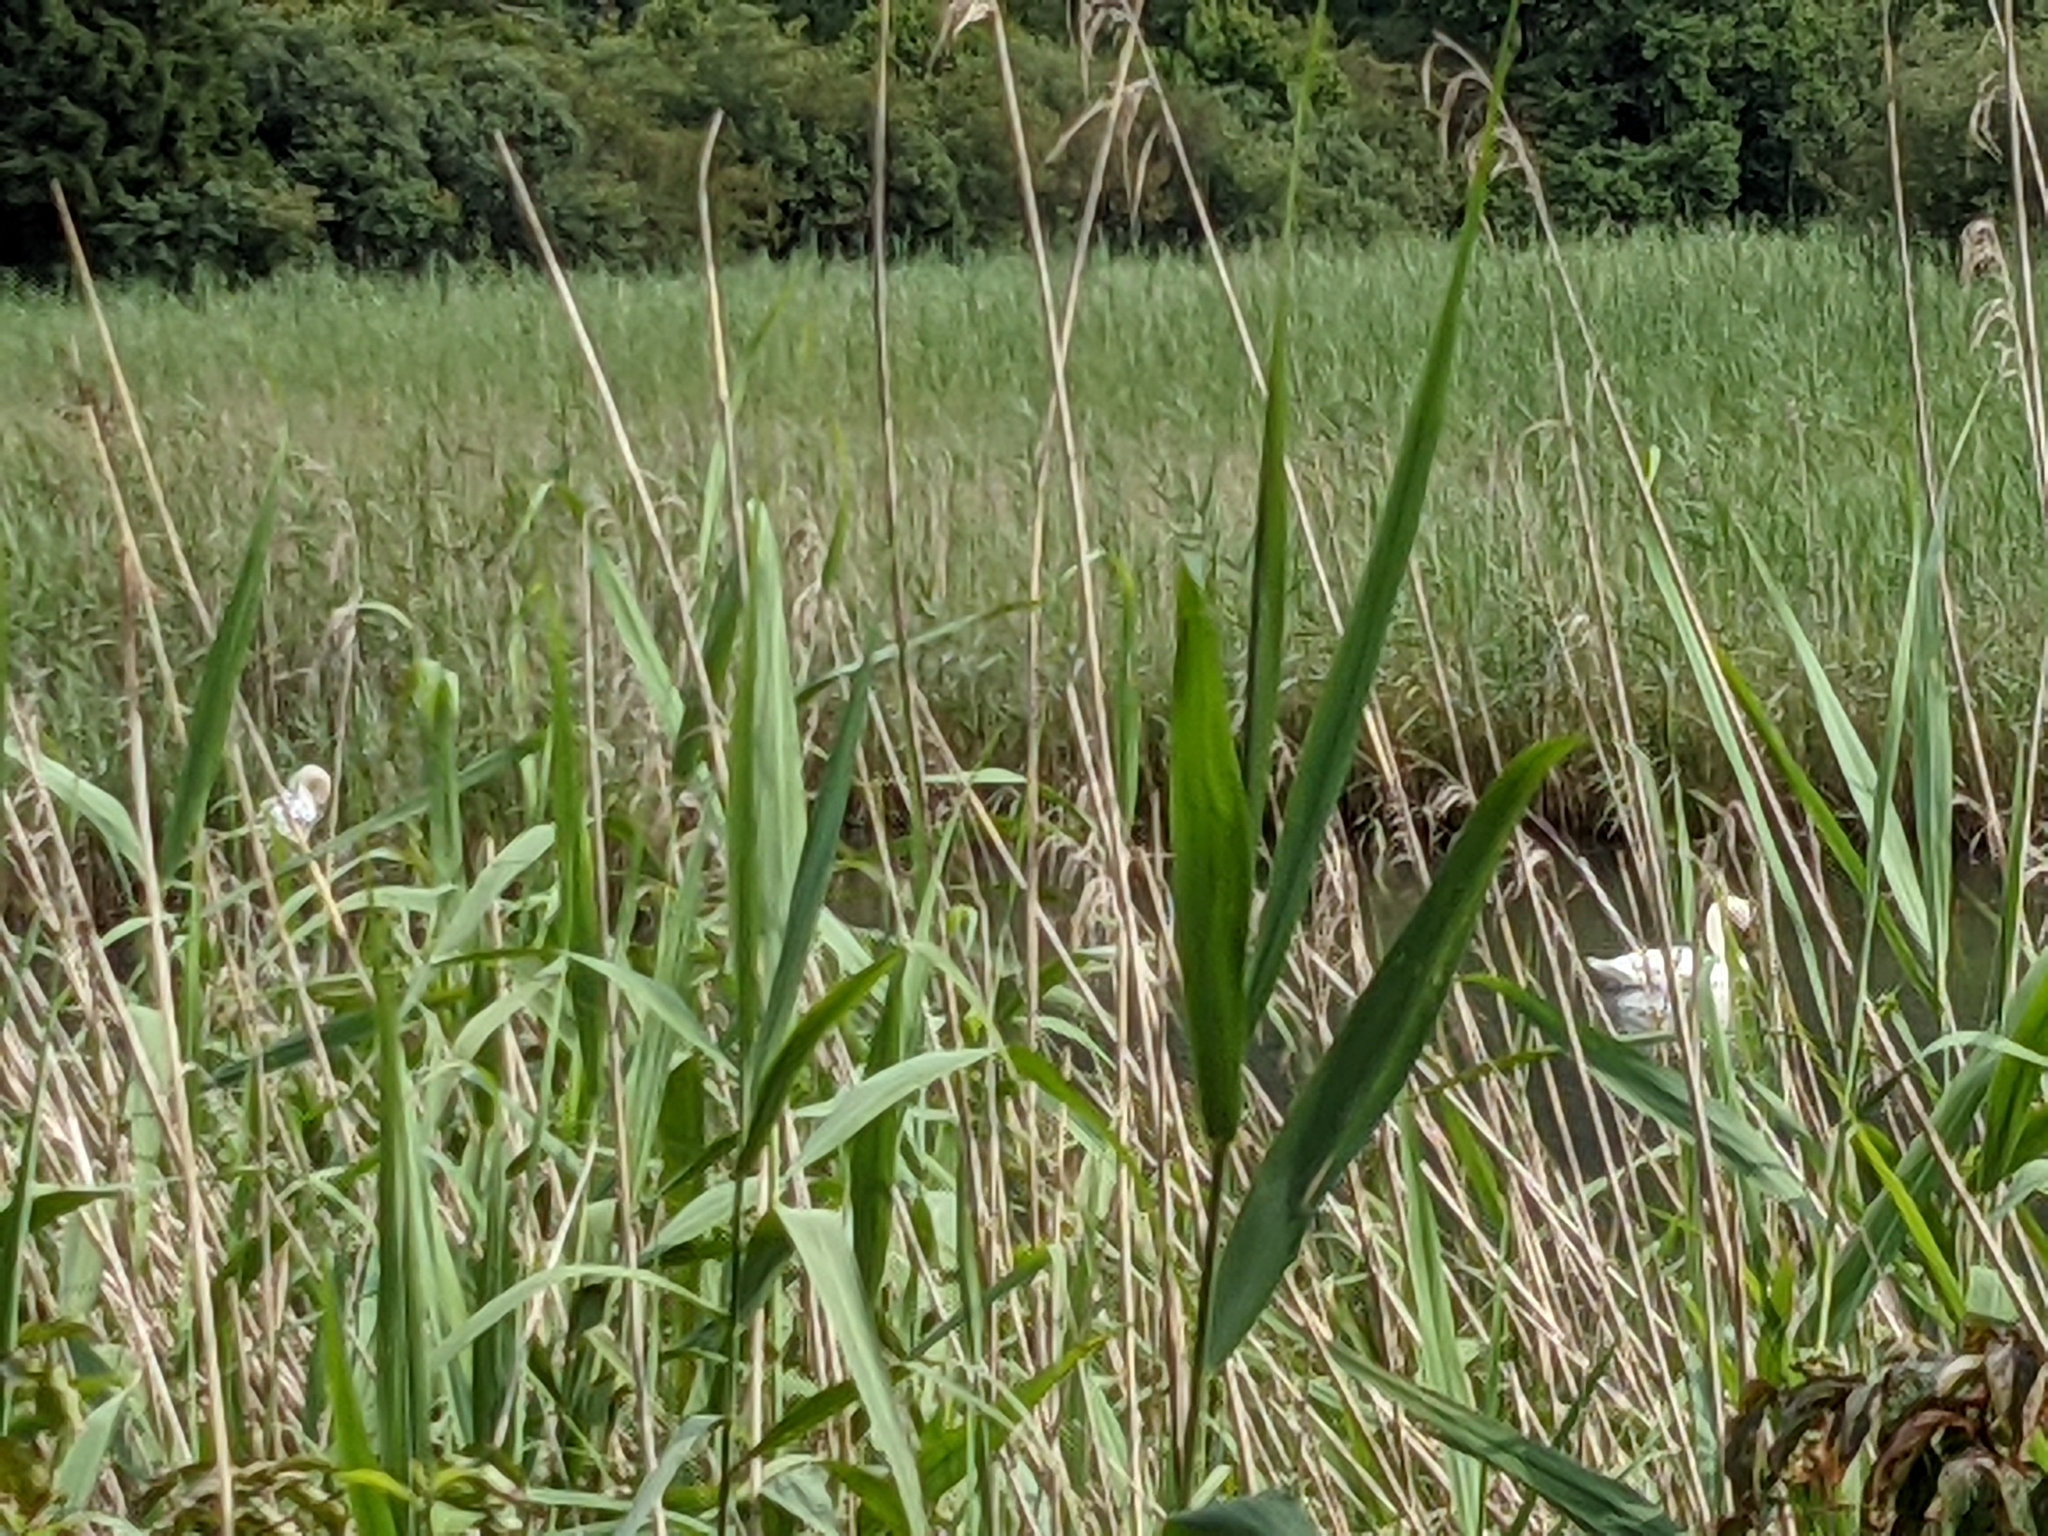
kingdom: Animalia
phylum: Chordata
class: Aves
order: Anseriformes
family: Anatidae
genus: Cygnus
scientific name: Cygnus olor
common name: Mute swan
